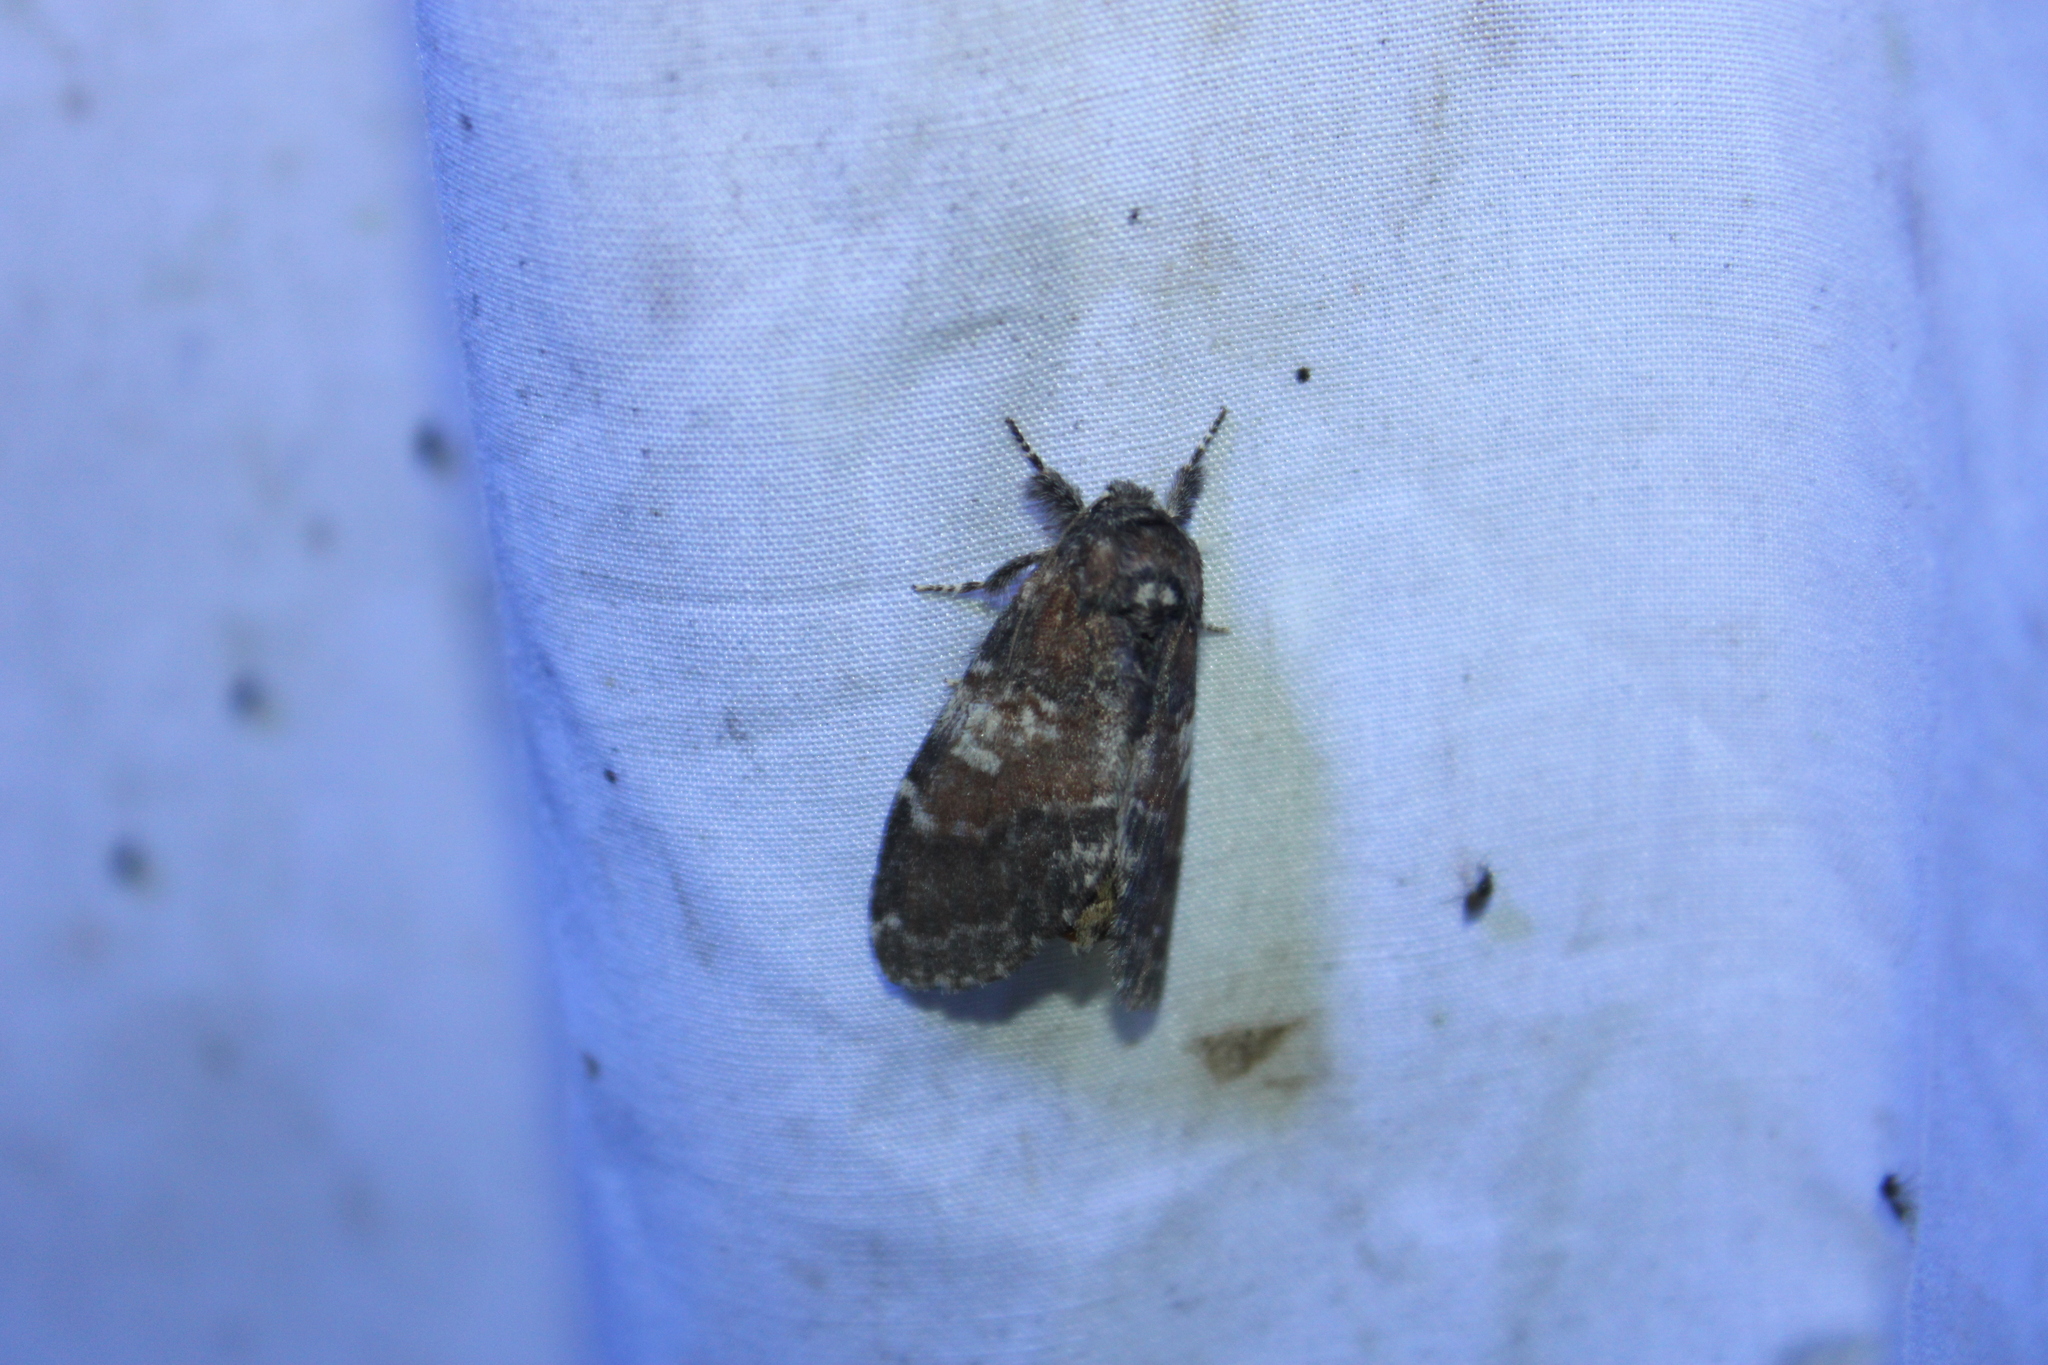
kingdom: Animalia
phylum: Arthropoda
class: Insecta
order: Lepidoptera
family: Notodontidae
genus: Peridea
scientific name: Peridea ferruginea
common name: Chocolate prominent
